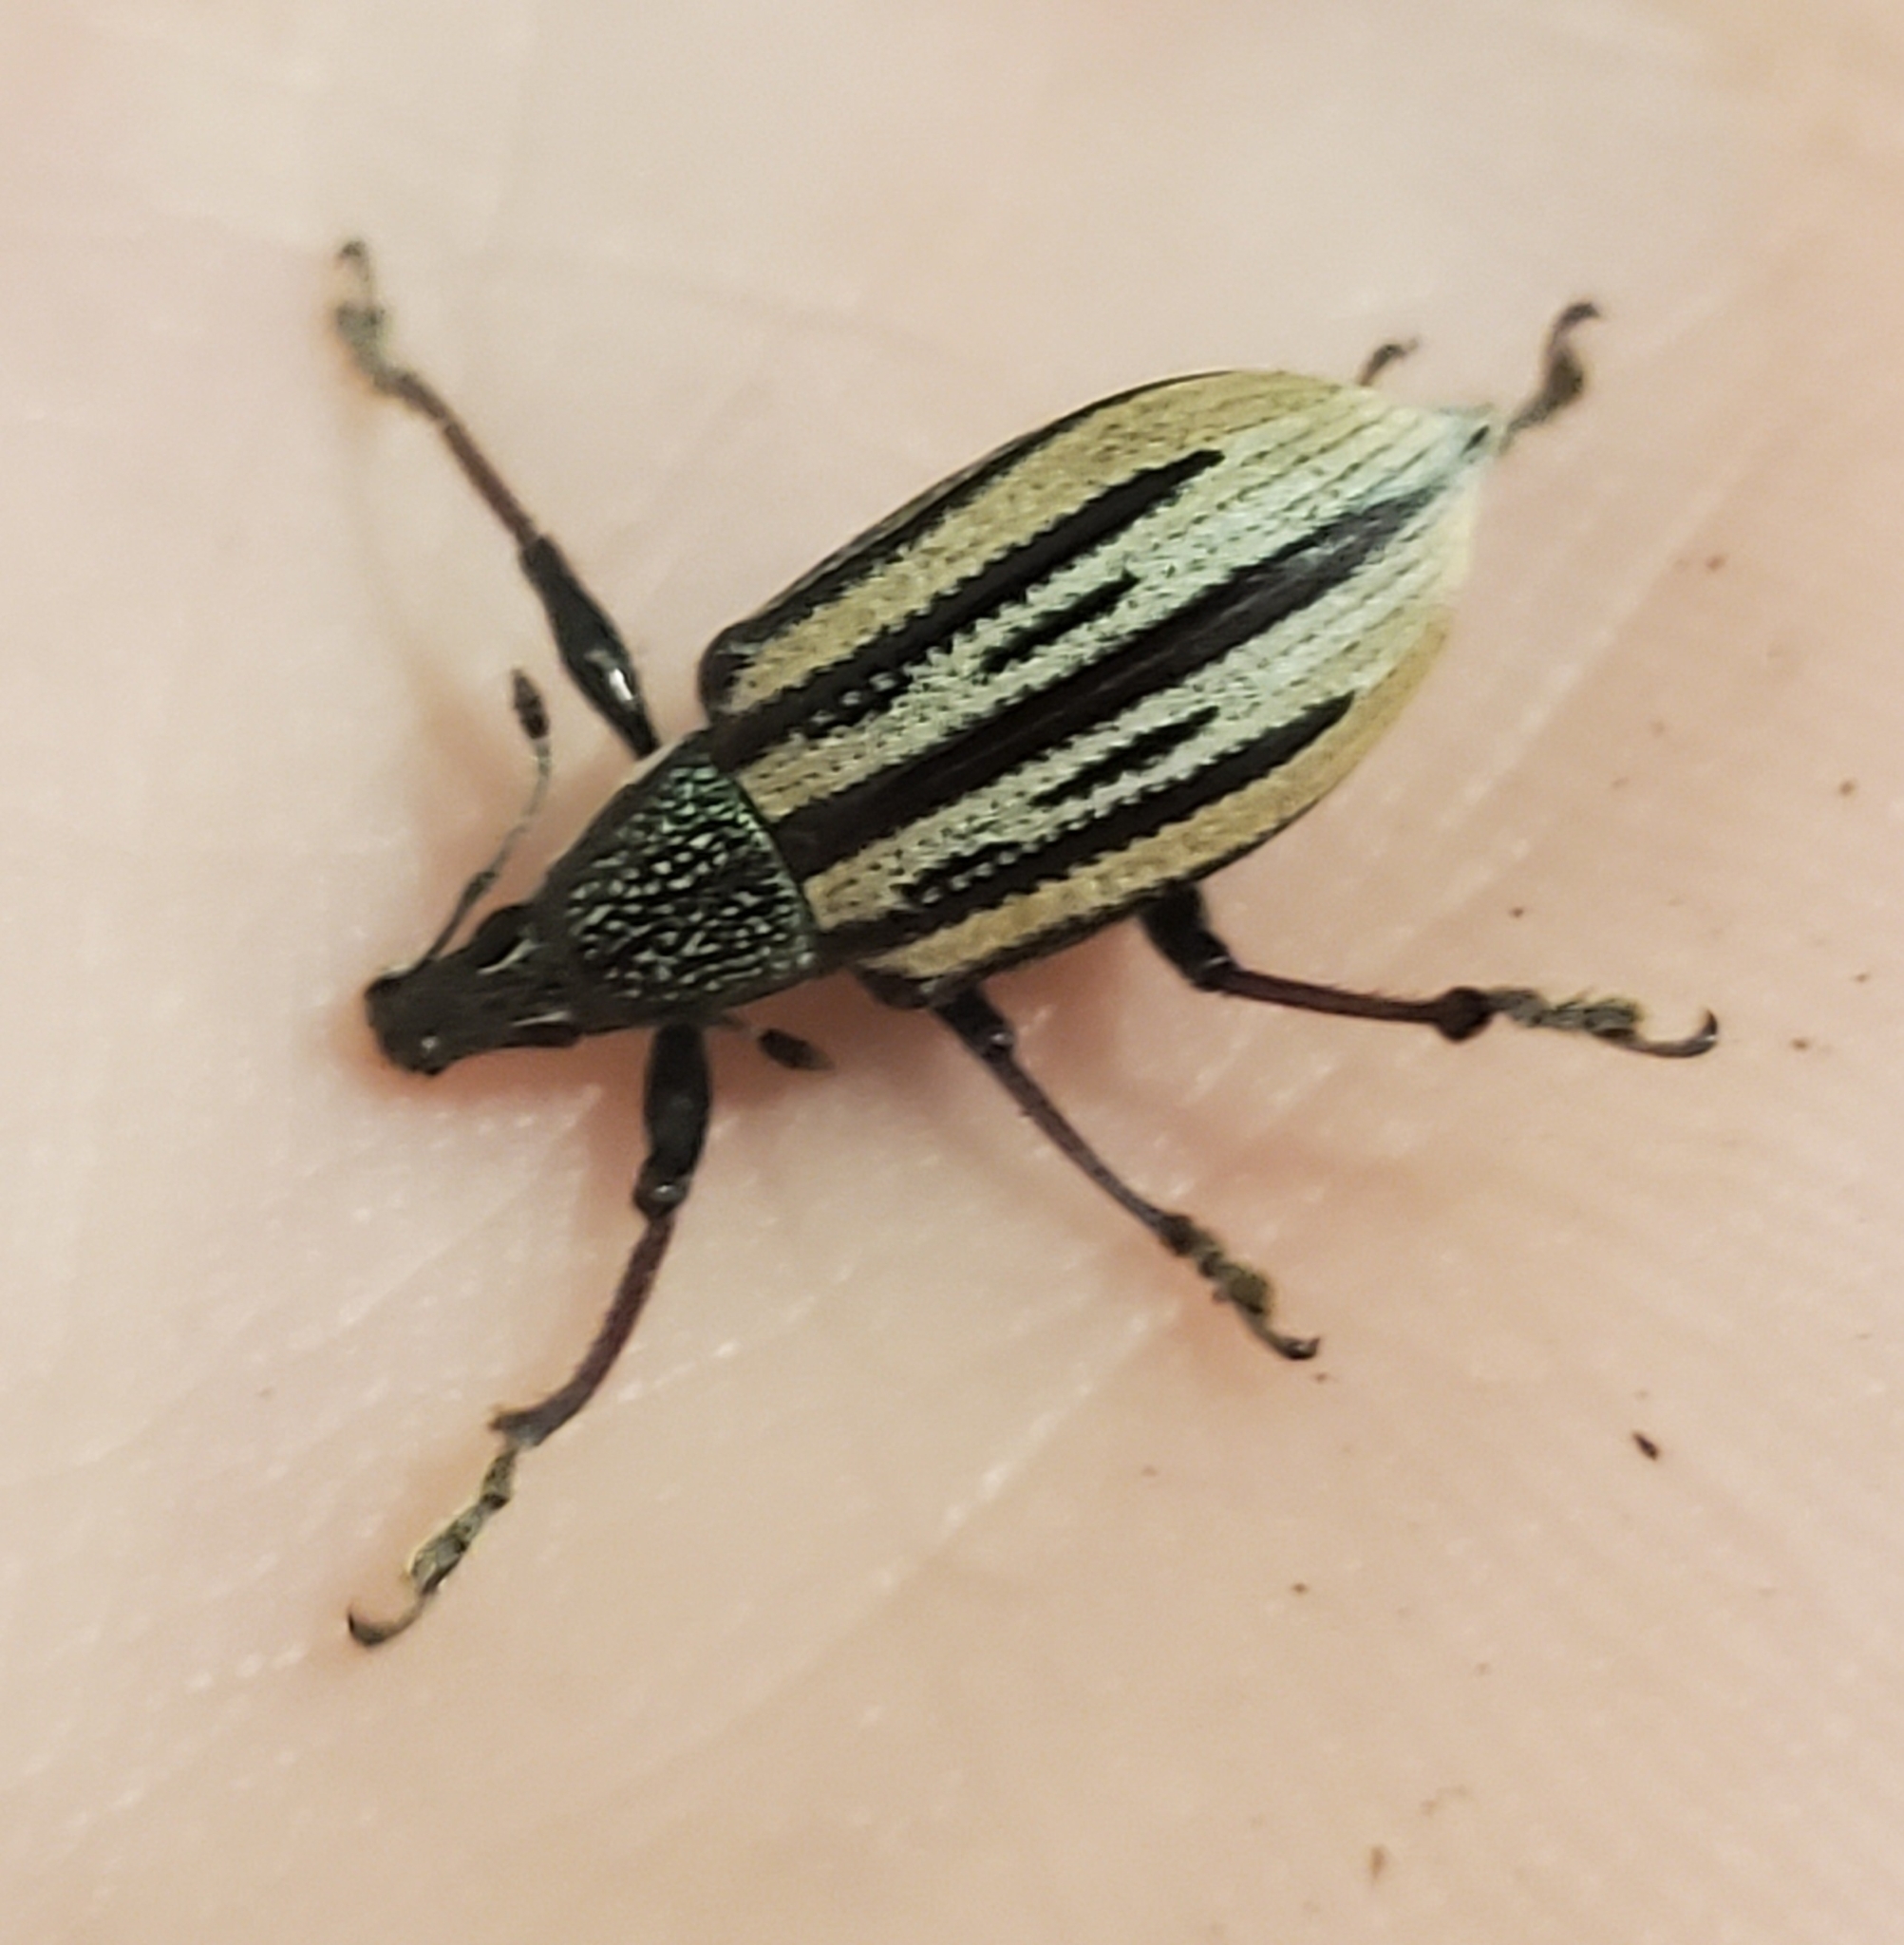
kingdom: Animalia
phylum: Arthropoda
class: Insecta
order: Coleoptera
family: Curculionidae
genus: Diaprepes
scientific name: Diaprepes abbreviatus
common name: Root weevil
